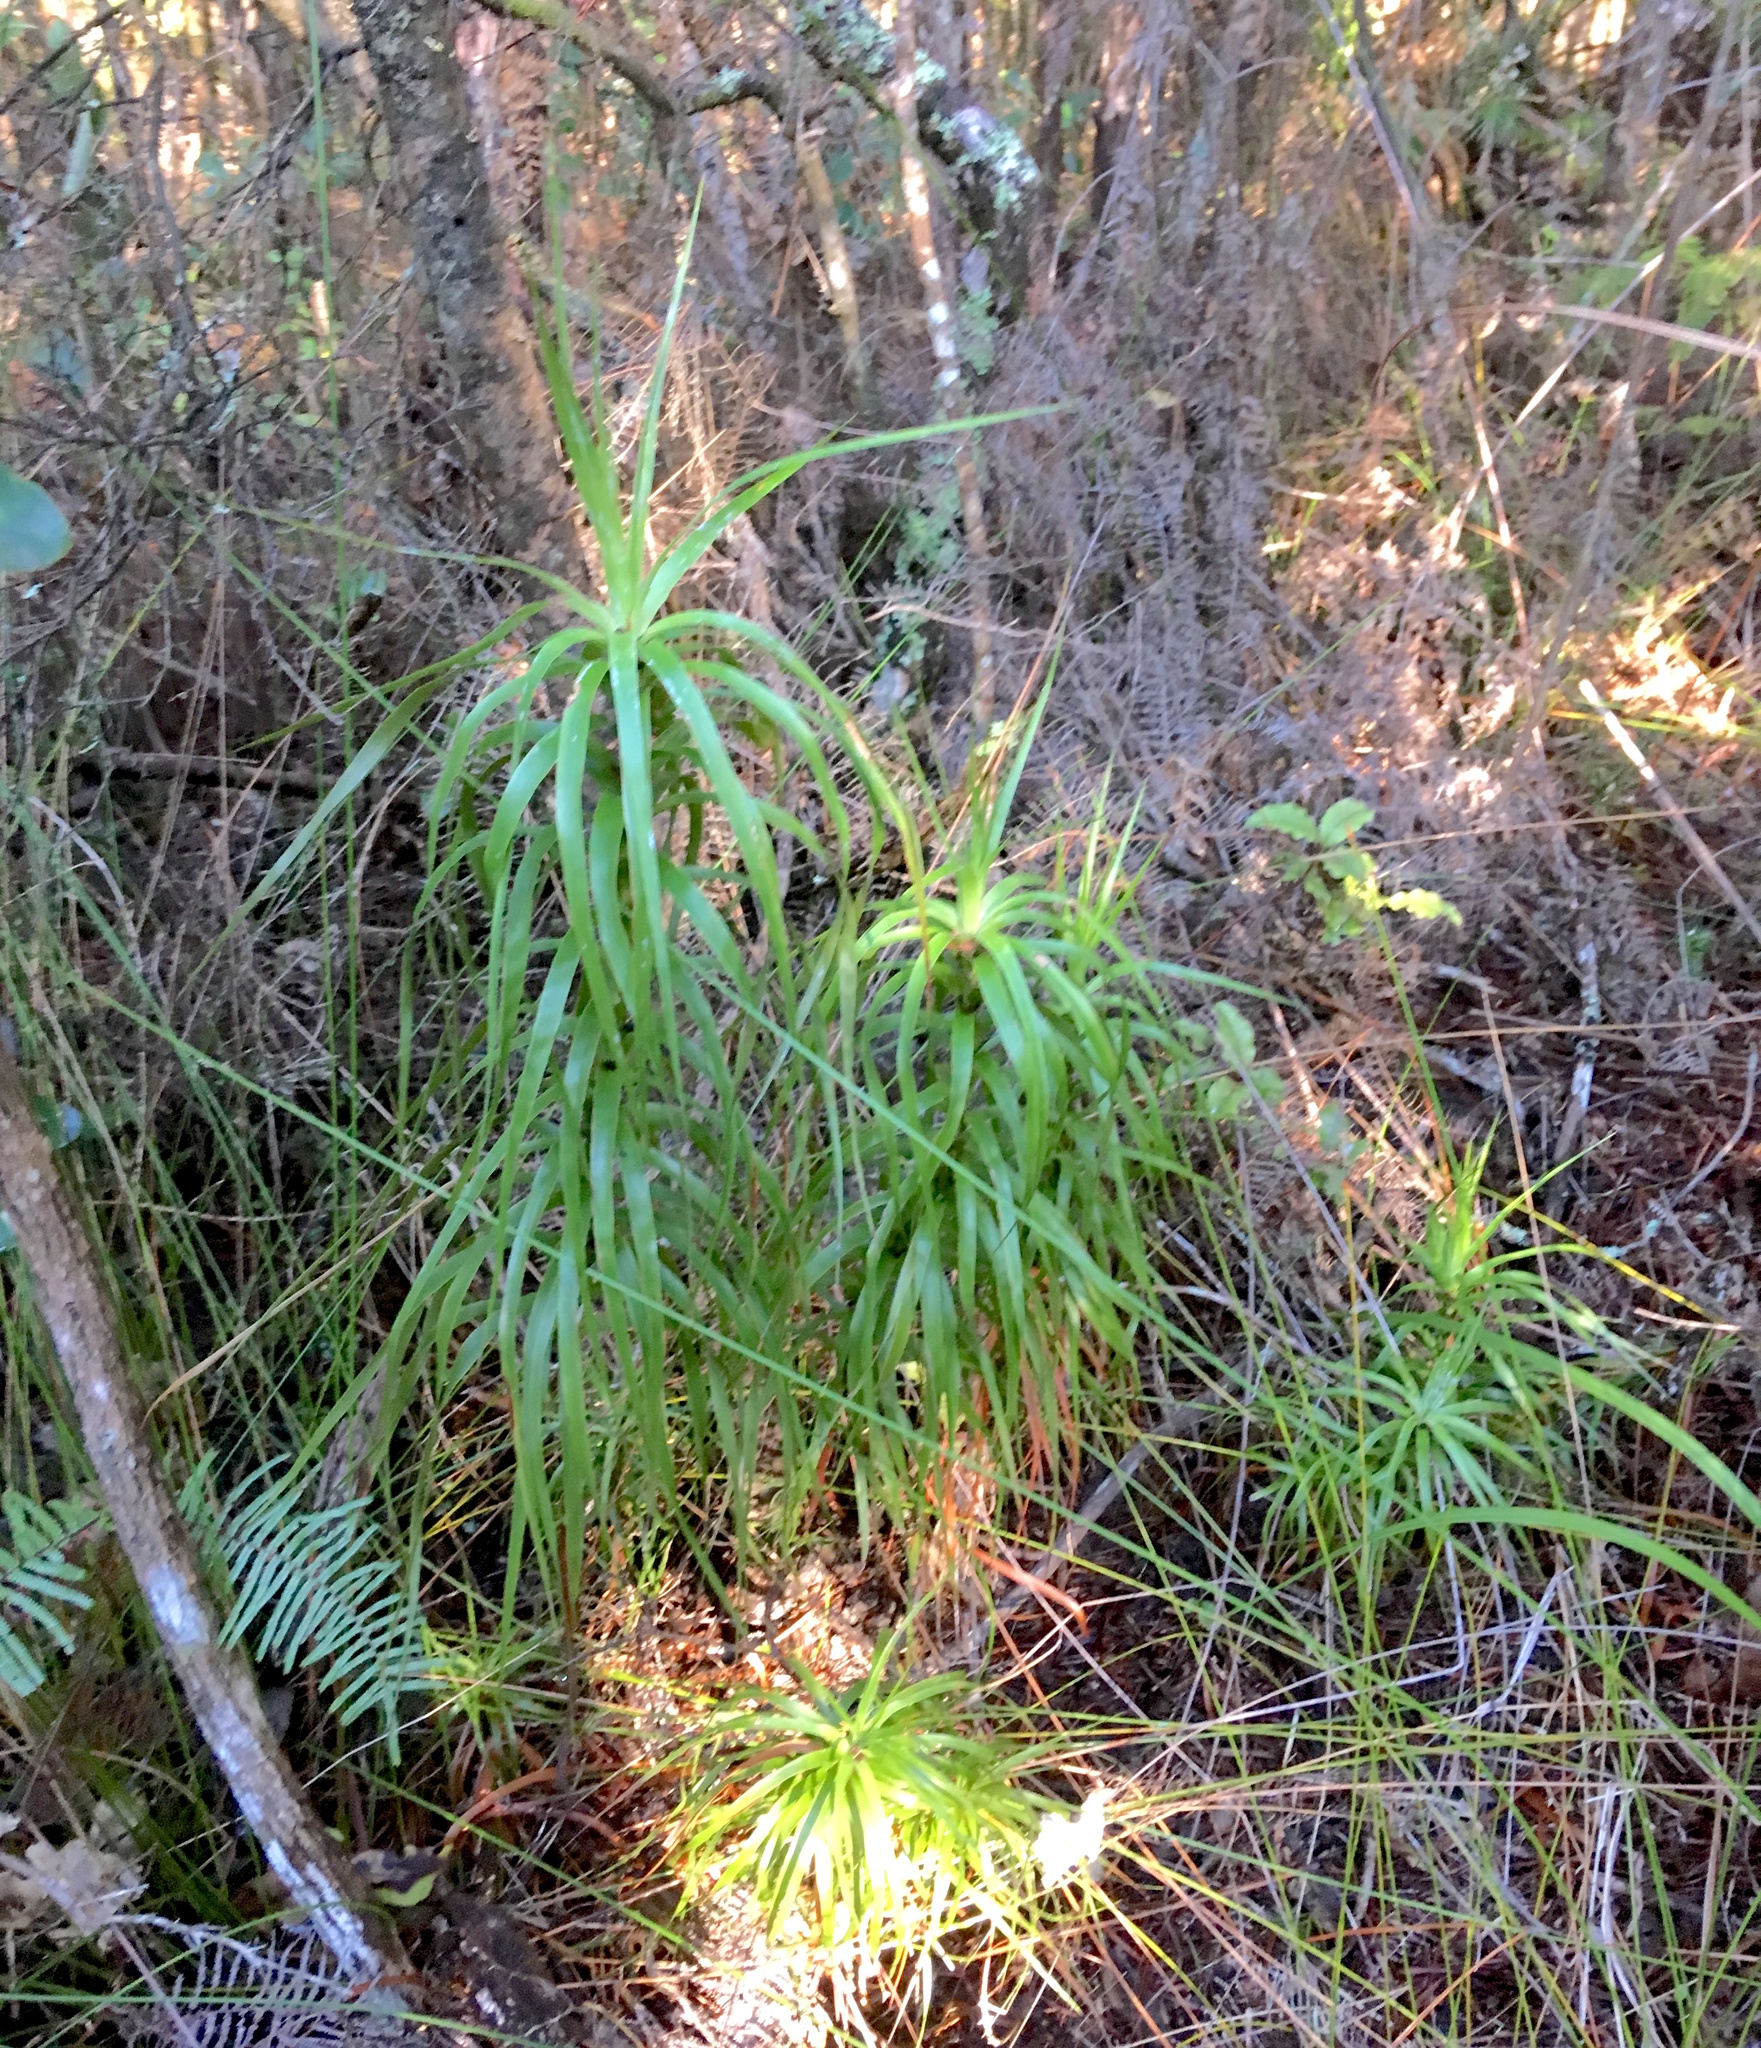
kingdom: Plantae
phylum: Tracheophyta
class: Magnoliopsida
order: Ericales
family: Ericaceae
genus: Dracophyllum
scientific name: Dracophyllum sinclairii
